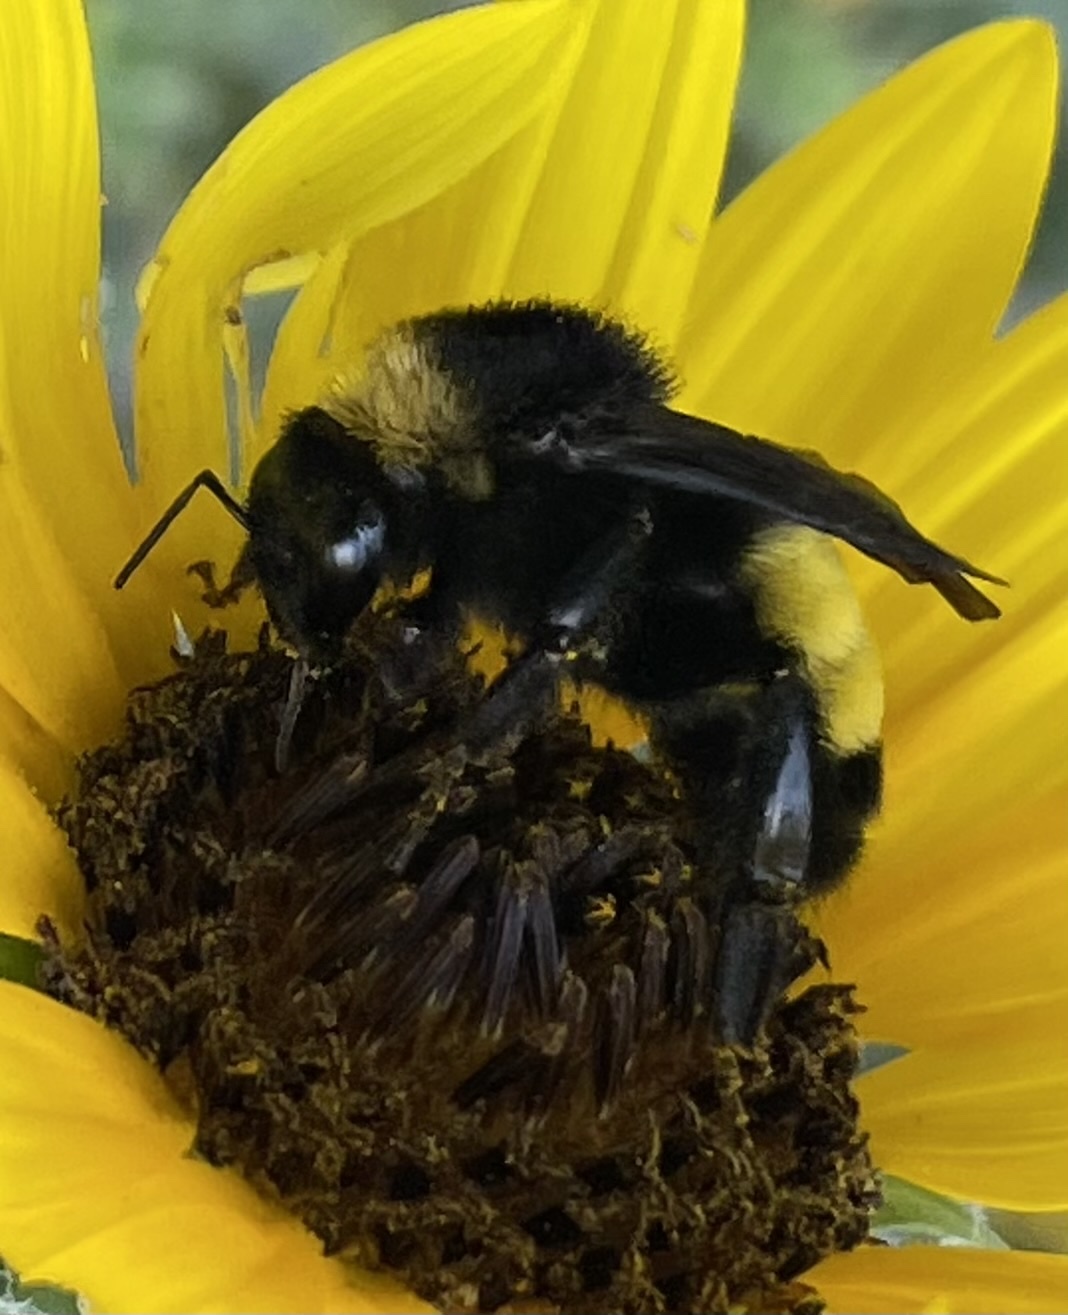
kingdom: Animalia
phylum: Arthropoda
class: Insecta
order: Hymenoptera
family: Apidae
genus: Bombus
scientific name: Bombus pensylvanicus
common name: Bumble bee
